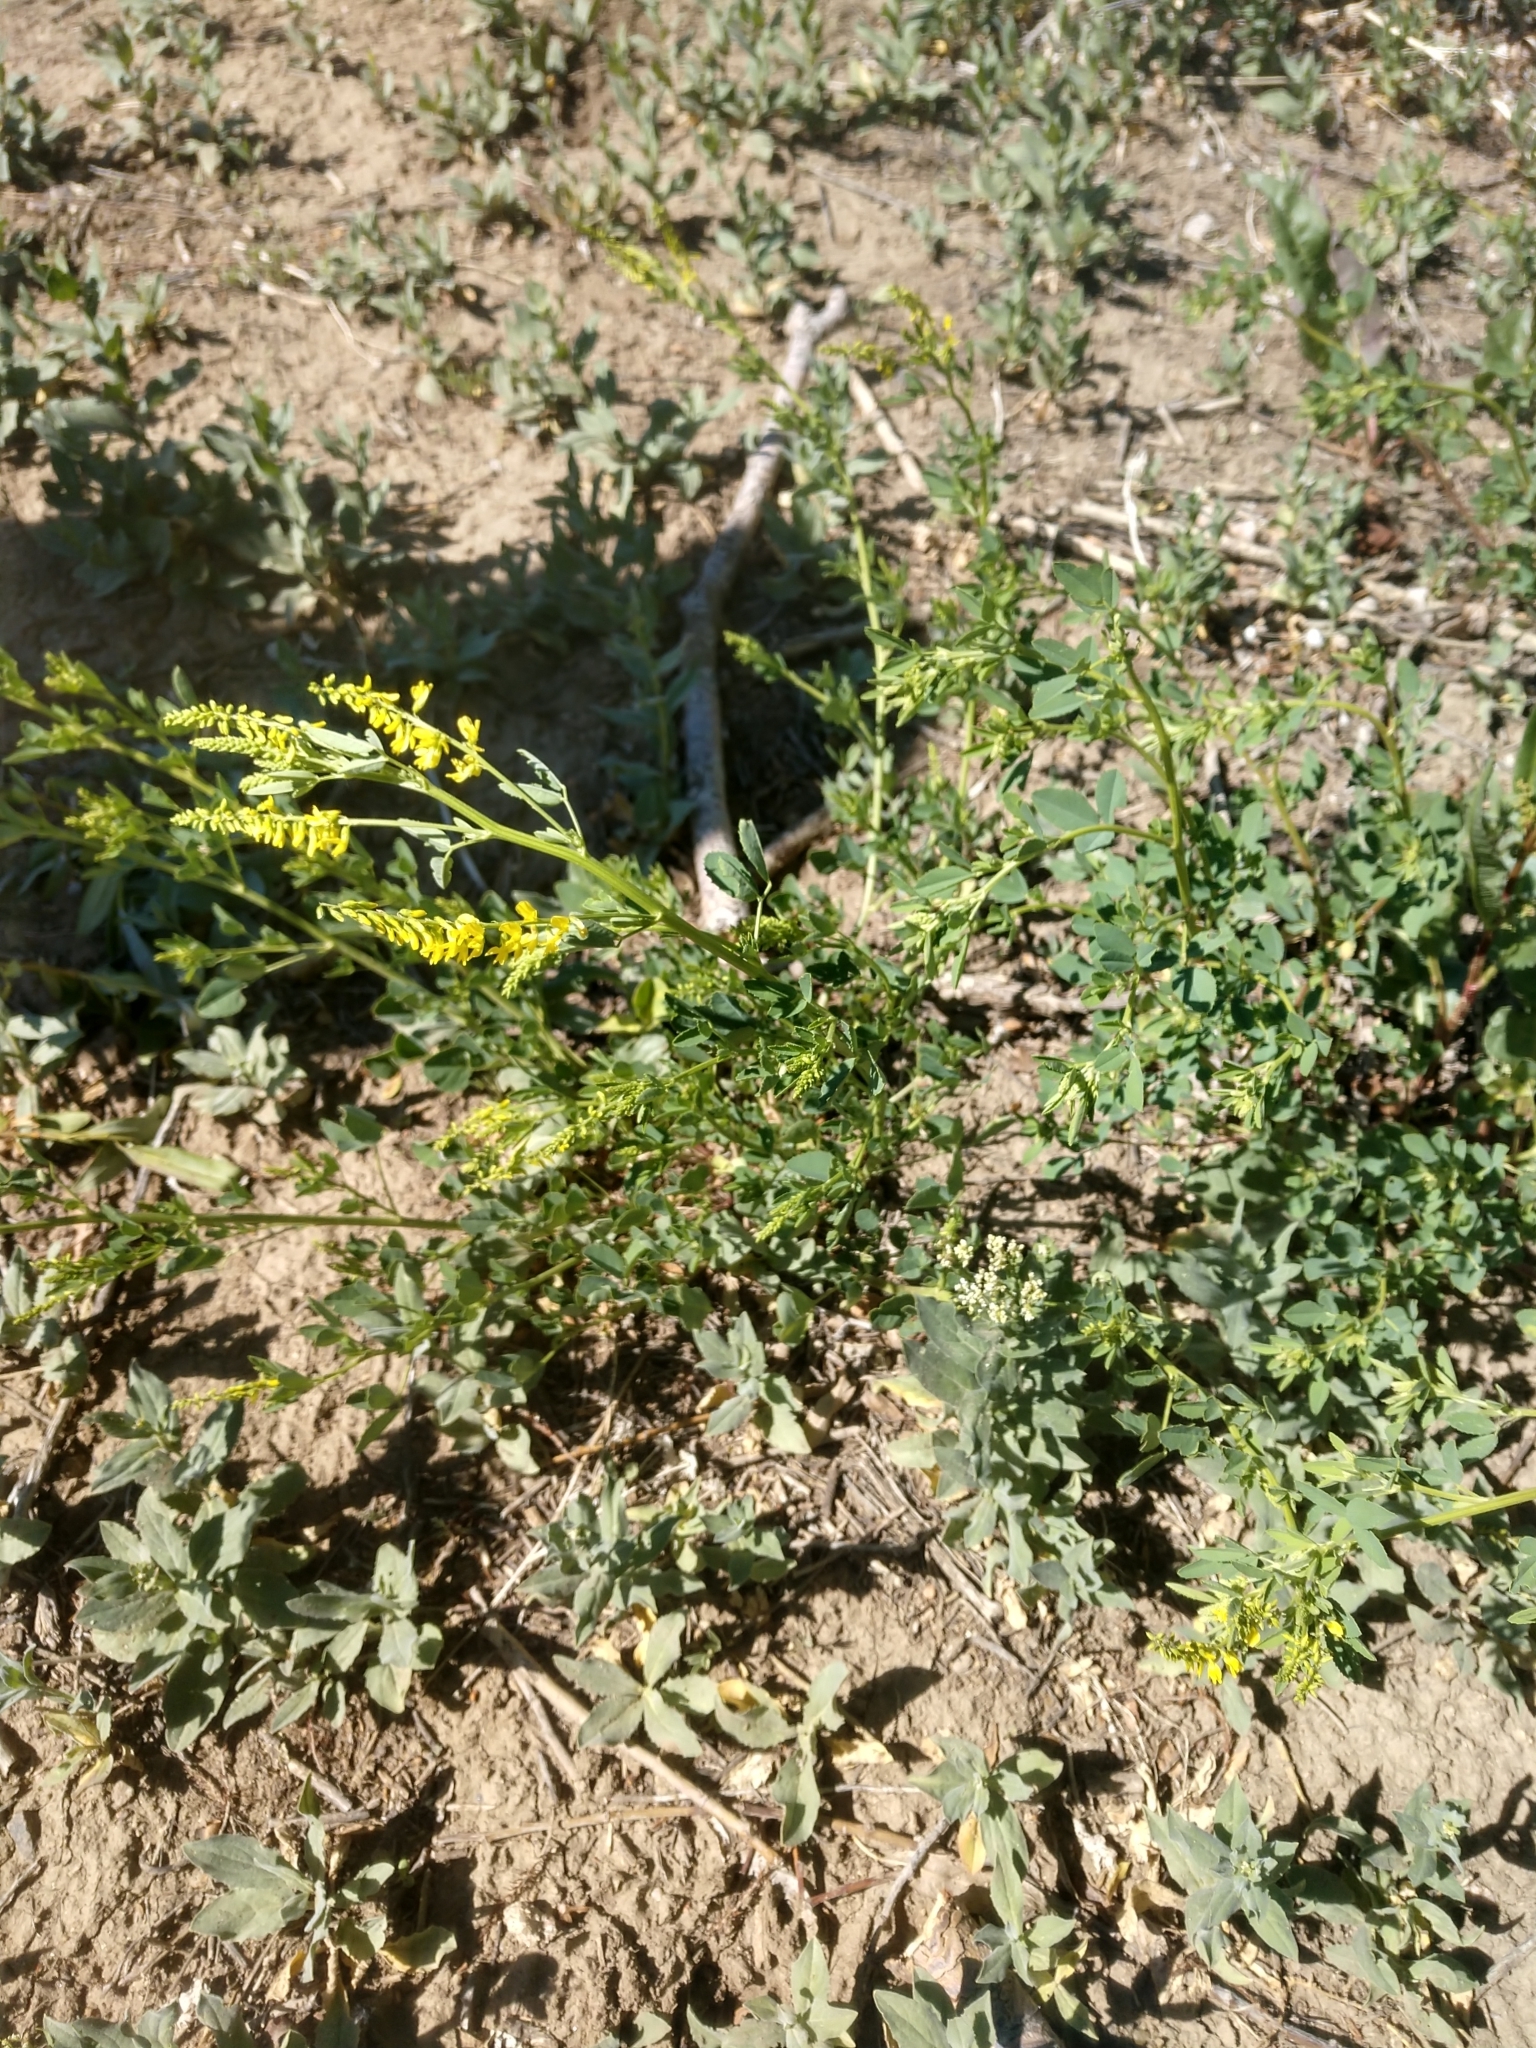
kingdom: Plantae
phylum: Tracheophyta
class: Magnoliopsida
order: Fabales
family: Fabaceae
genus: Melilotus
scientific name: Melilotus officinalis
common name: Sweetclover
